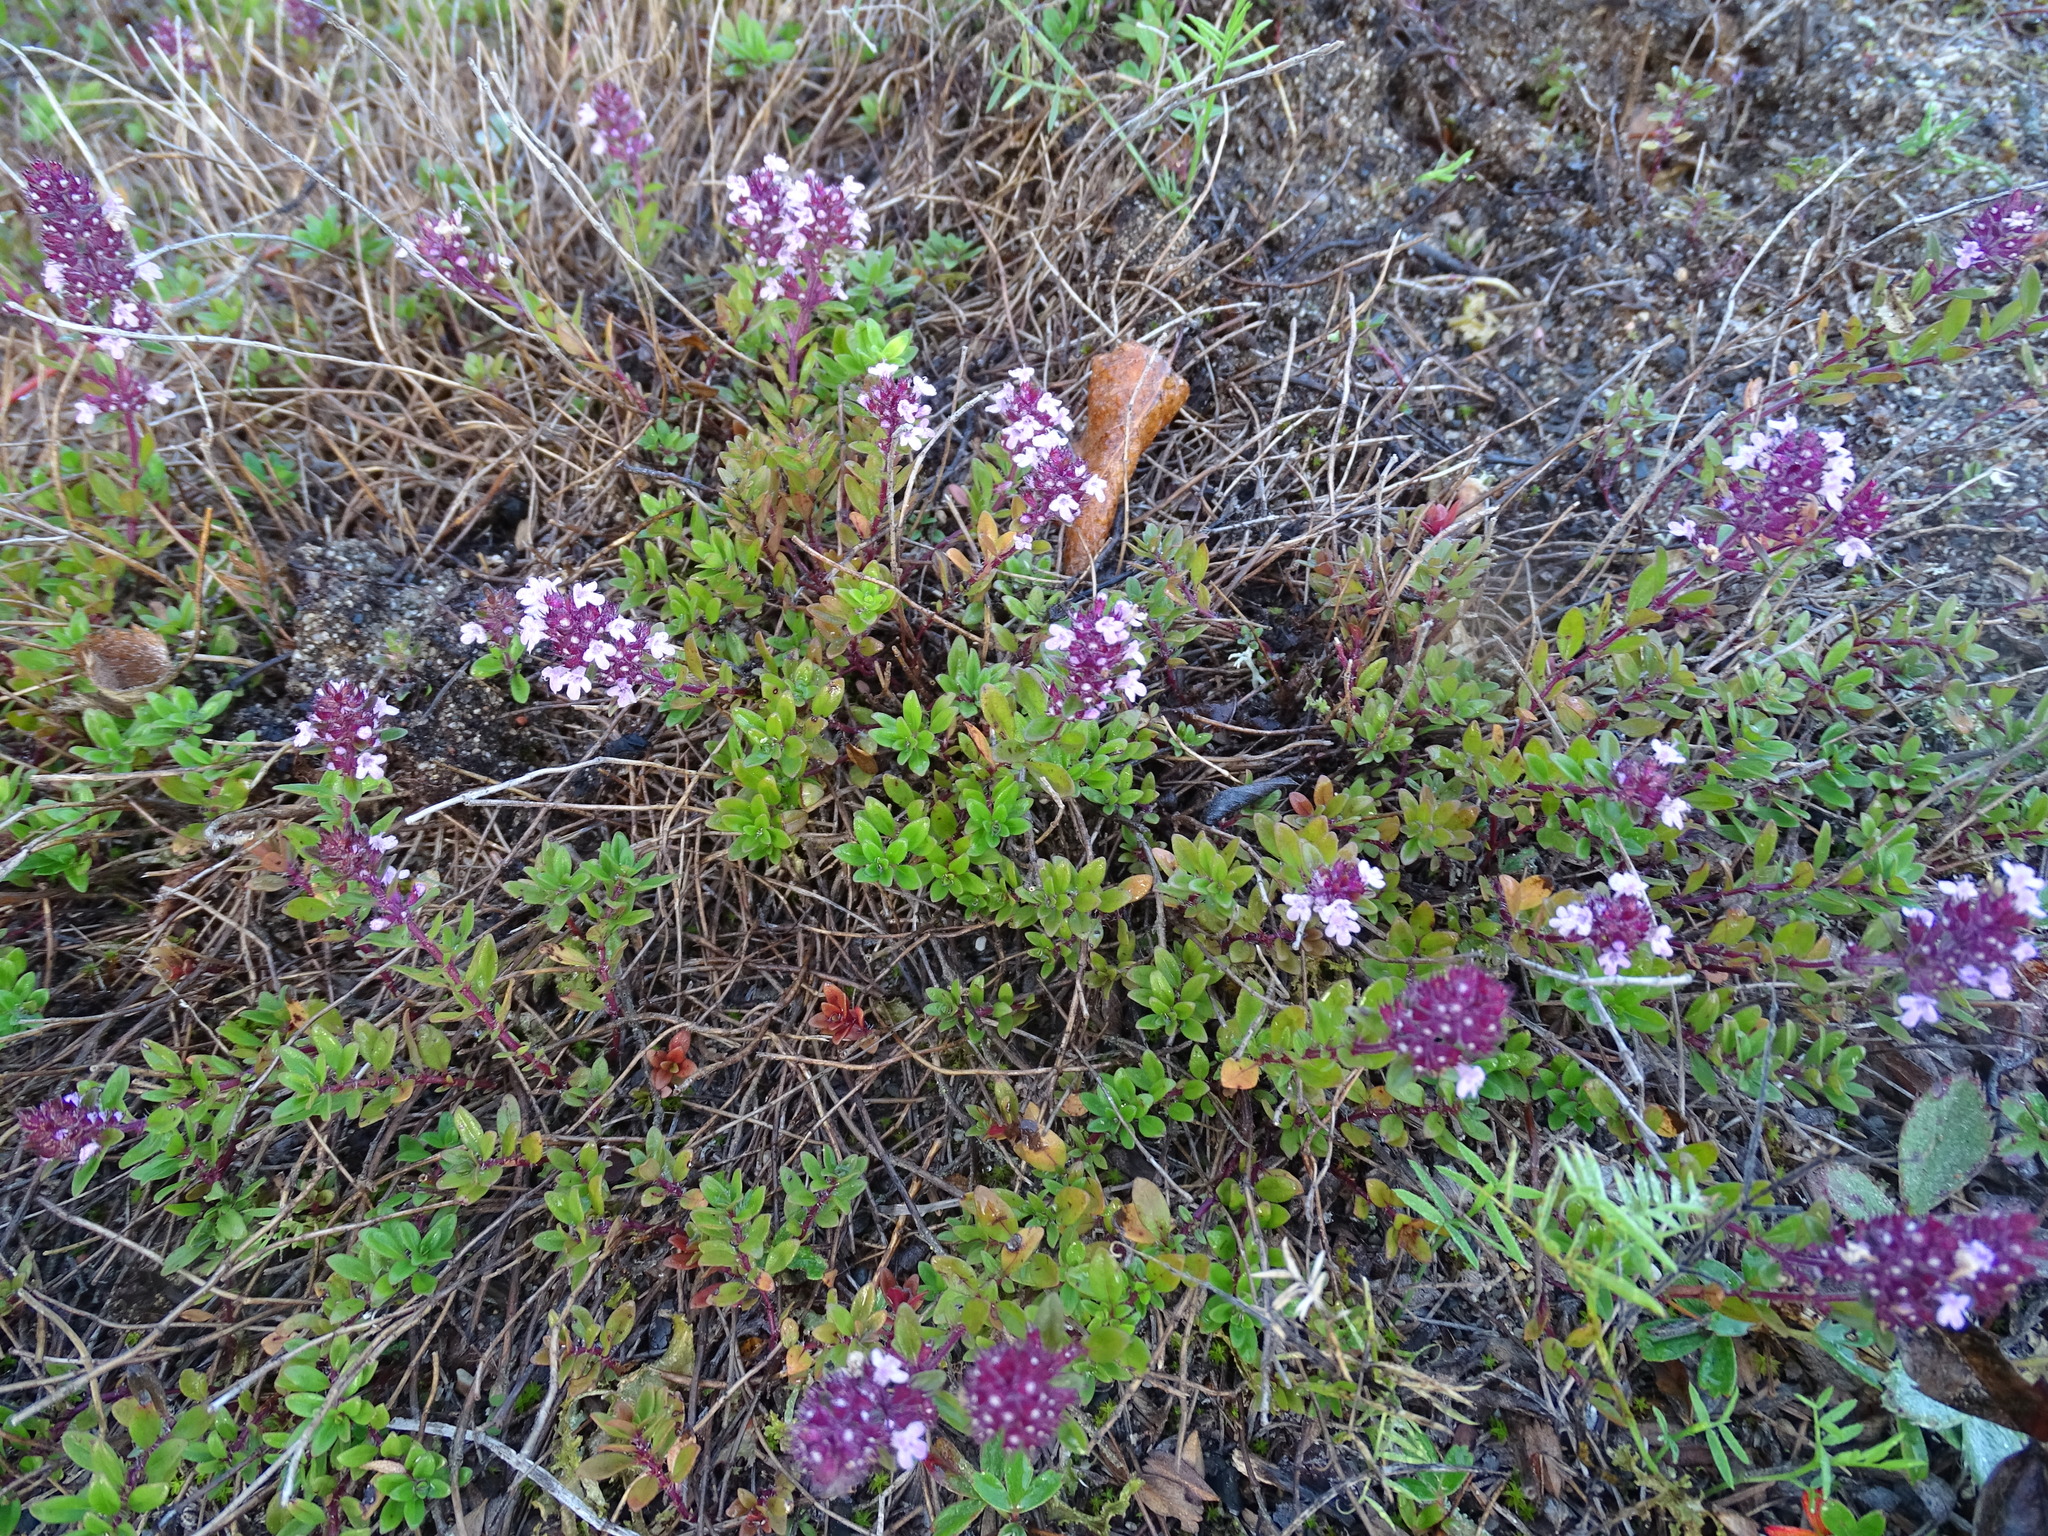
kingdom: Plantae
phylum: Tracheophyta
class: Magnoliopsida
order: Lamiales
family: Lamiaceae
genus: Thymus
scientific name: Thymus pulegioides
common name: Large thyme
